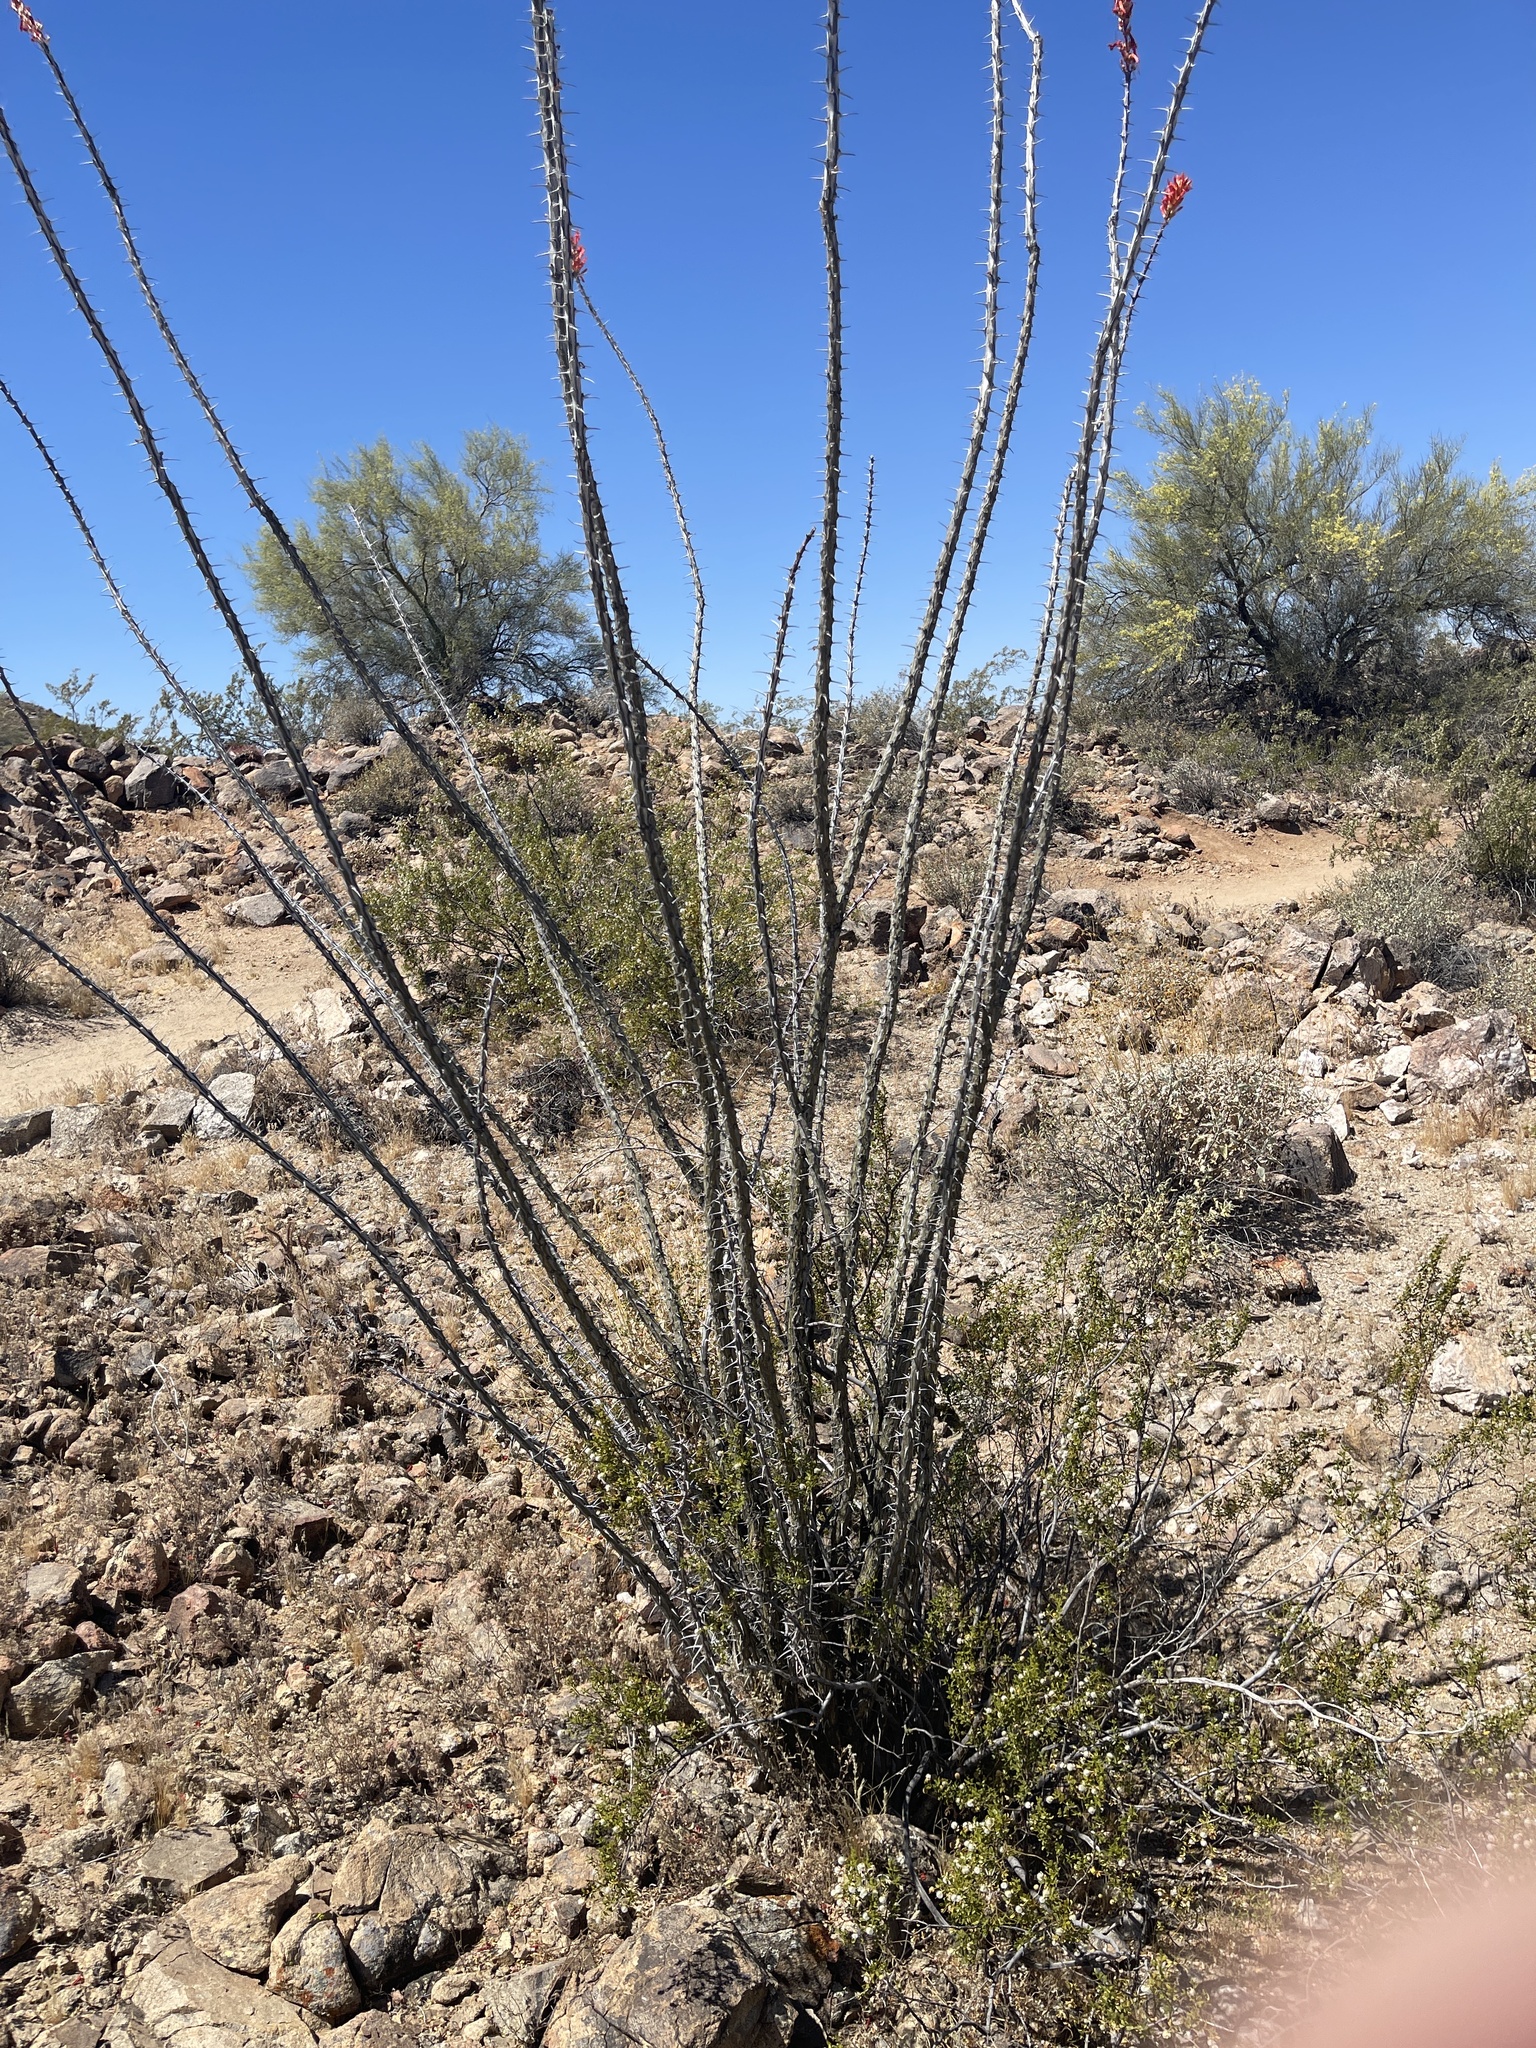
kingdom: Plantae
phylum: Tracheophyta
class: Magnoliopsida
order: Ericales
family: Fouquieriaceae
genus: Fouquieria
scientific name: Fouquieria splendens
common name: Vine-cactus
